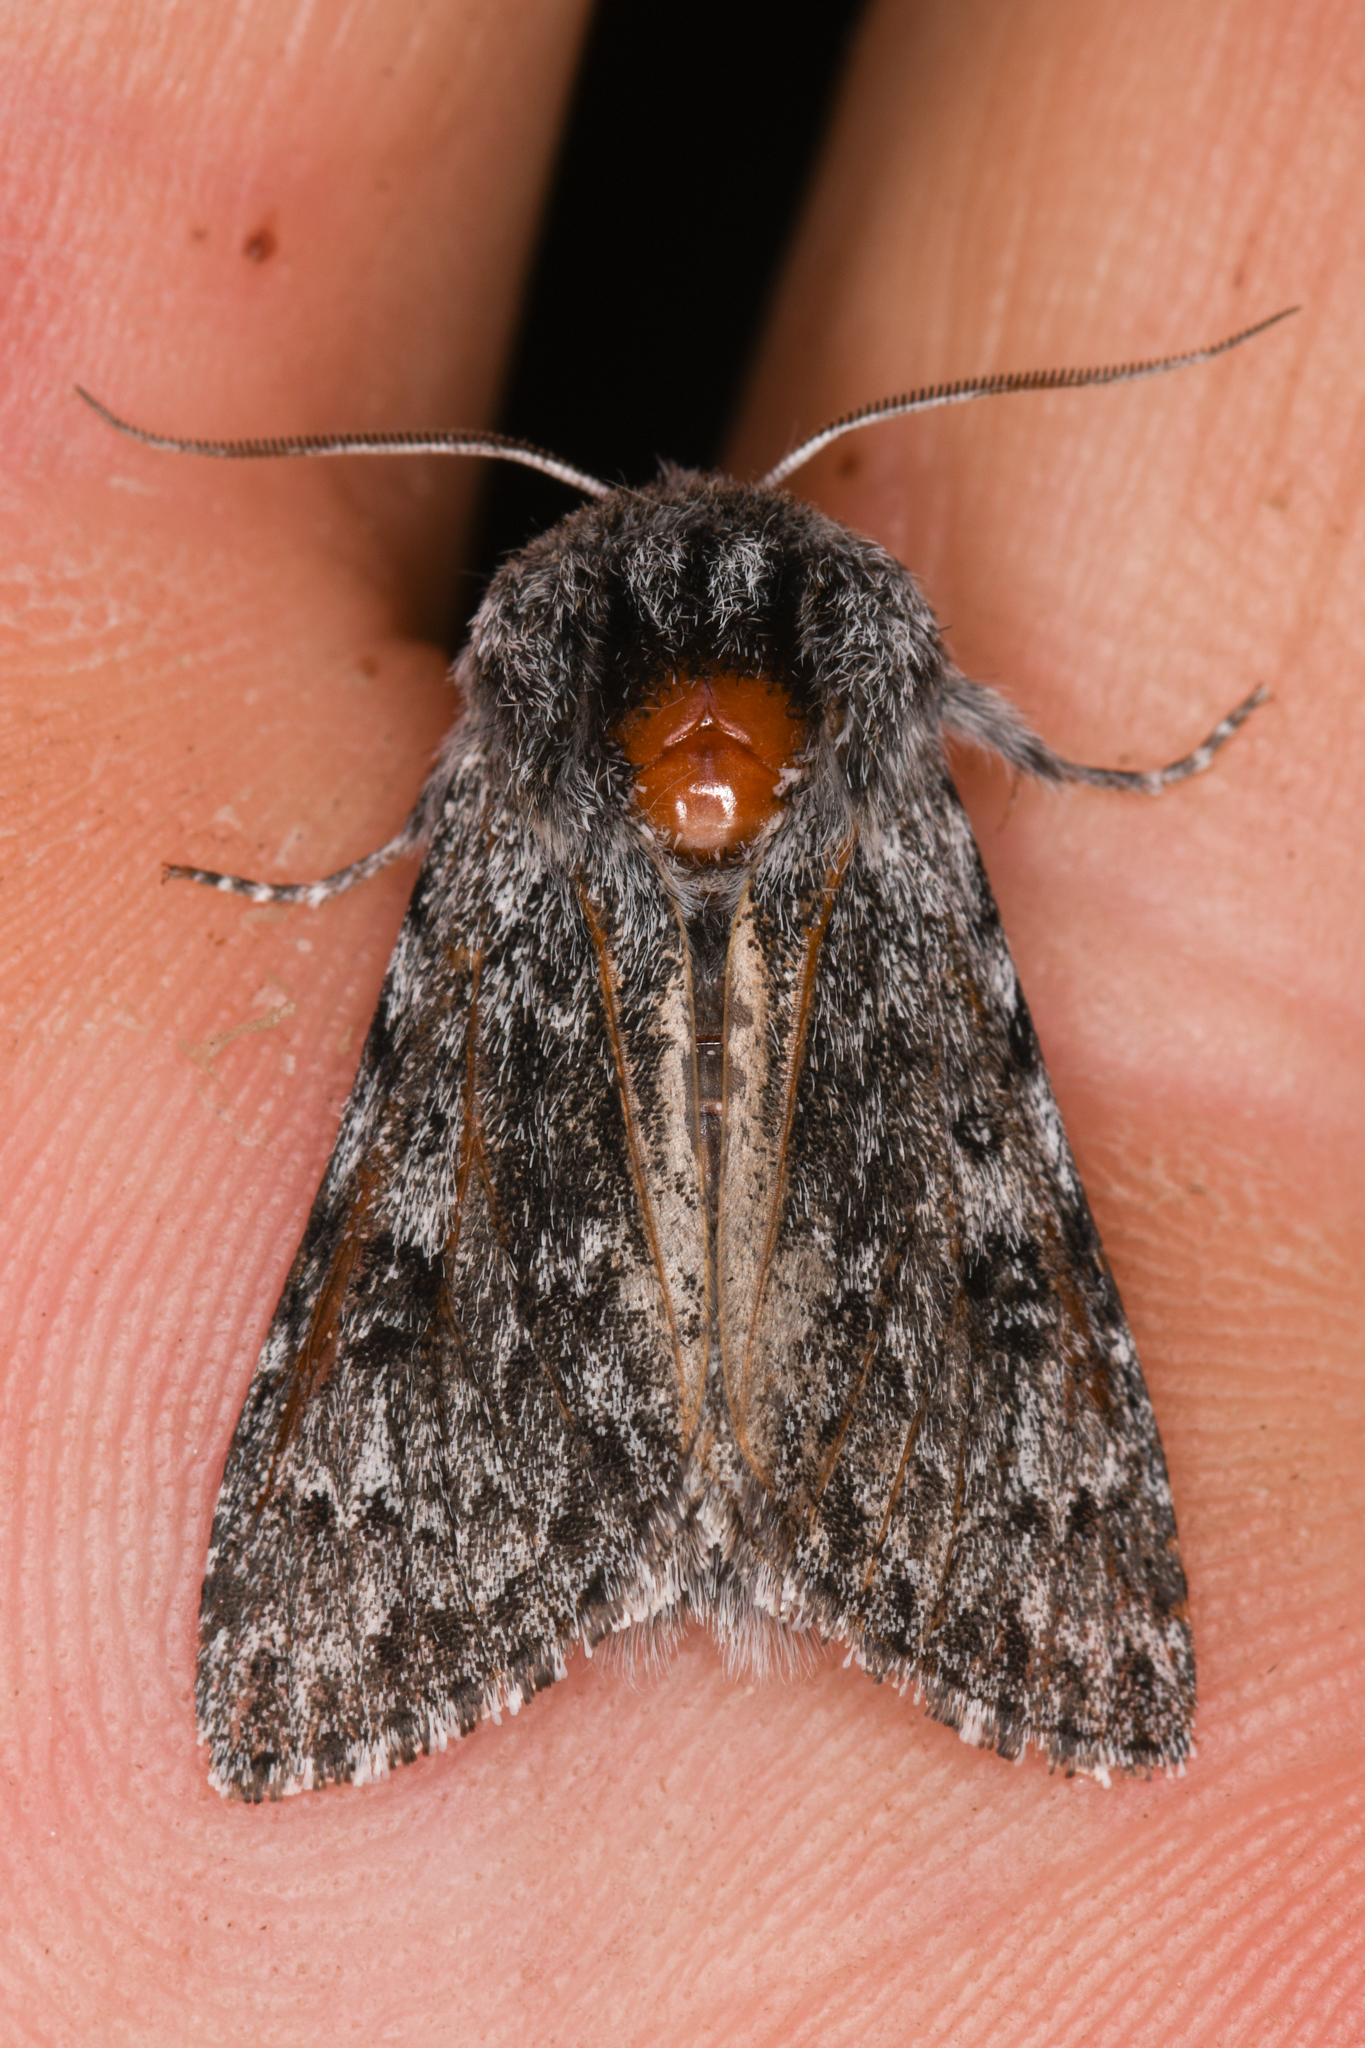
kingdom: Animalia
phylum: Arthropoda
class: Insecta
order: Lepidoptera
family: Noctuidae
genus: Acronicta
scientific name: Acronicta lupini
